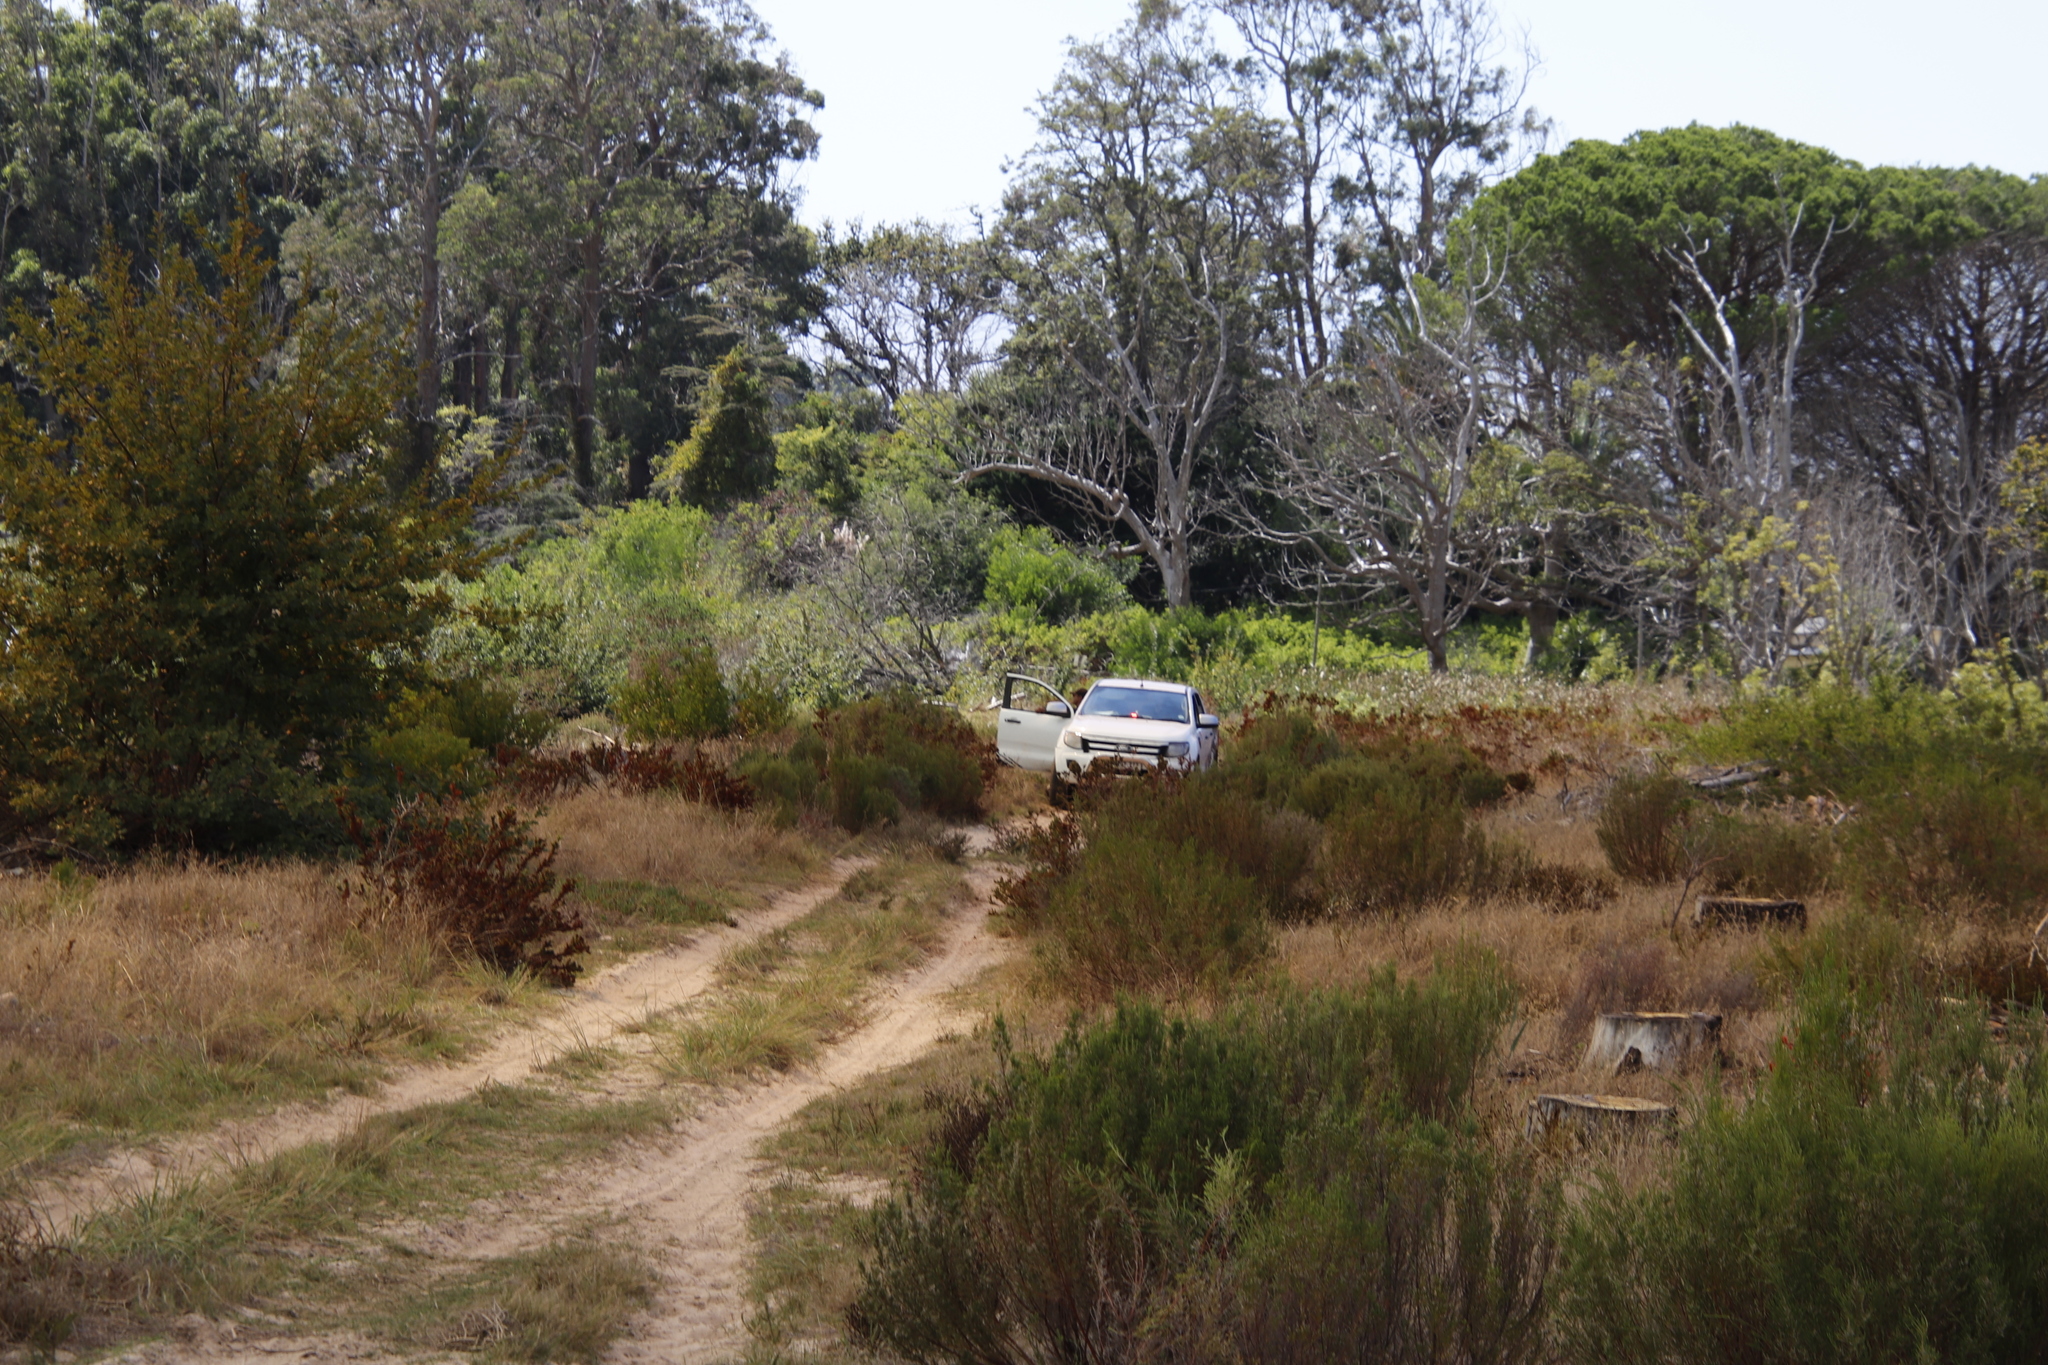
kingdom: Plantae
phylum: Tracheophyta
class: Magnoliopsida
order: Malvales
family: Thymelaeaceae
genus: Passerina
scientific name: Passerina corymbosa
